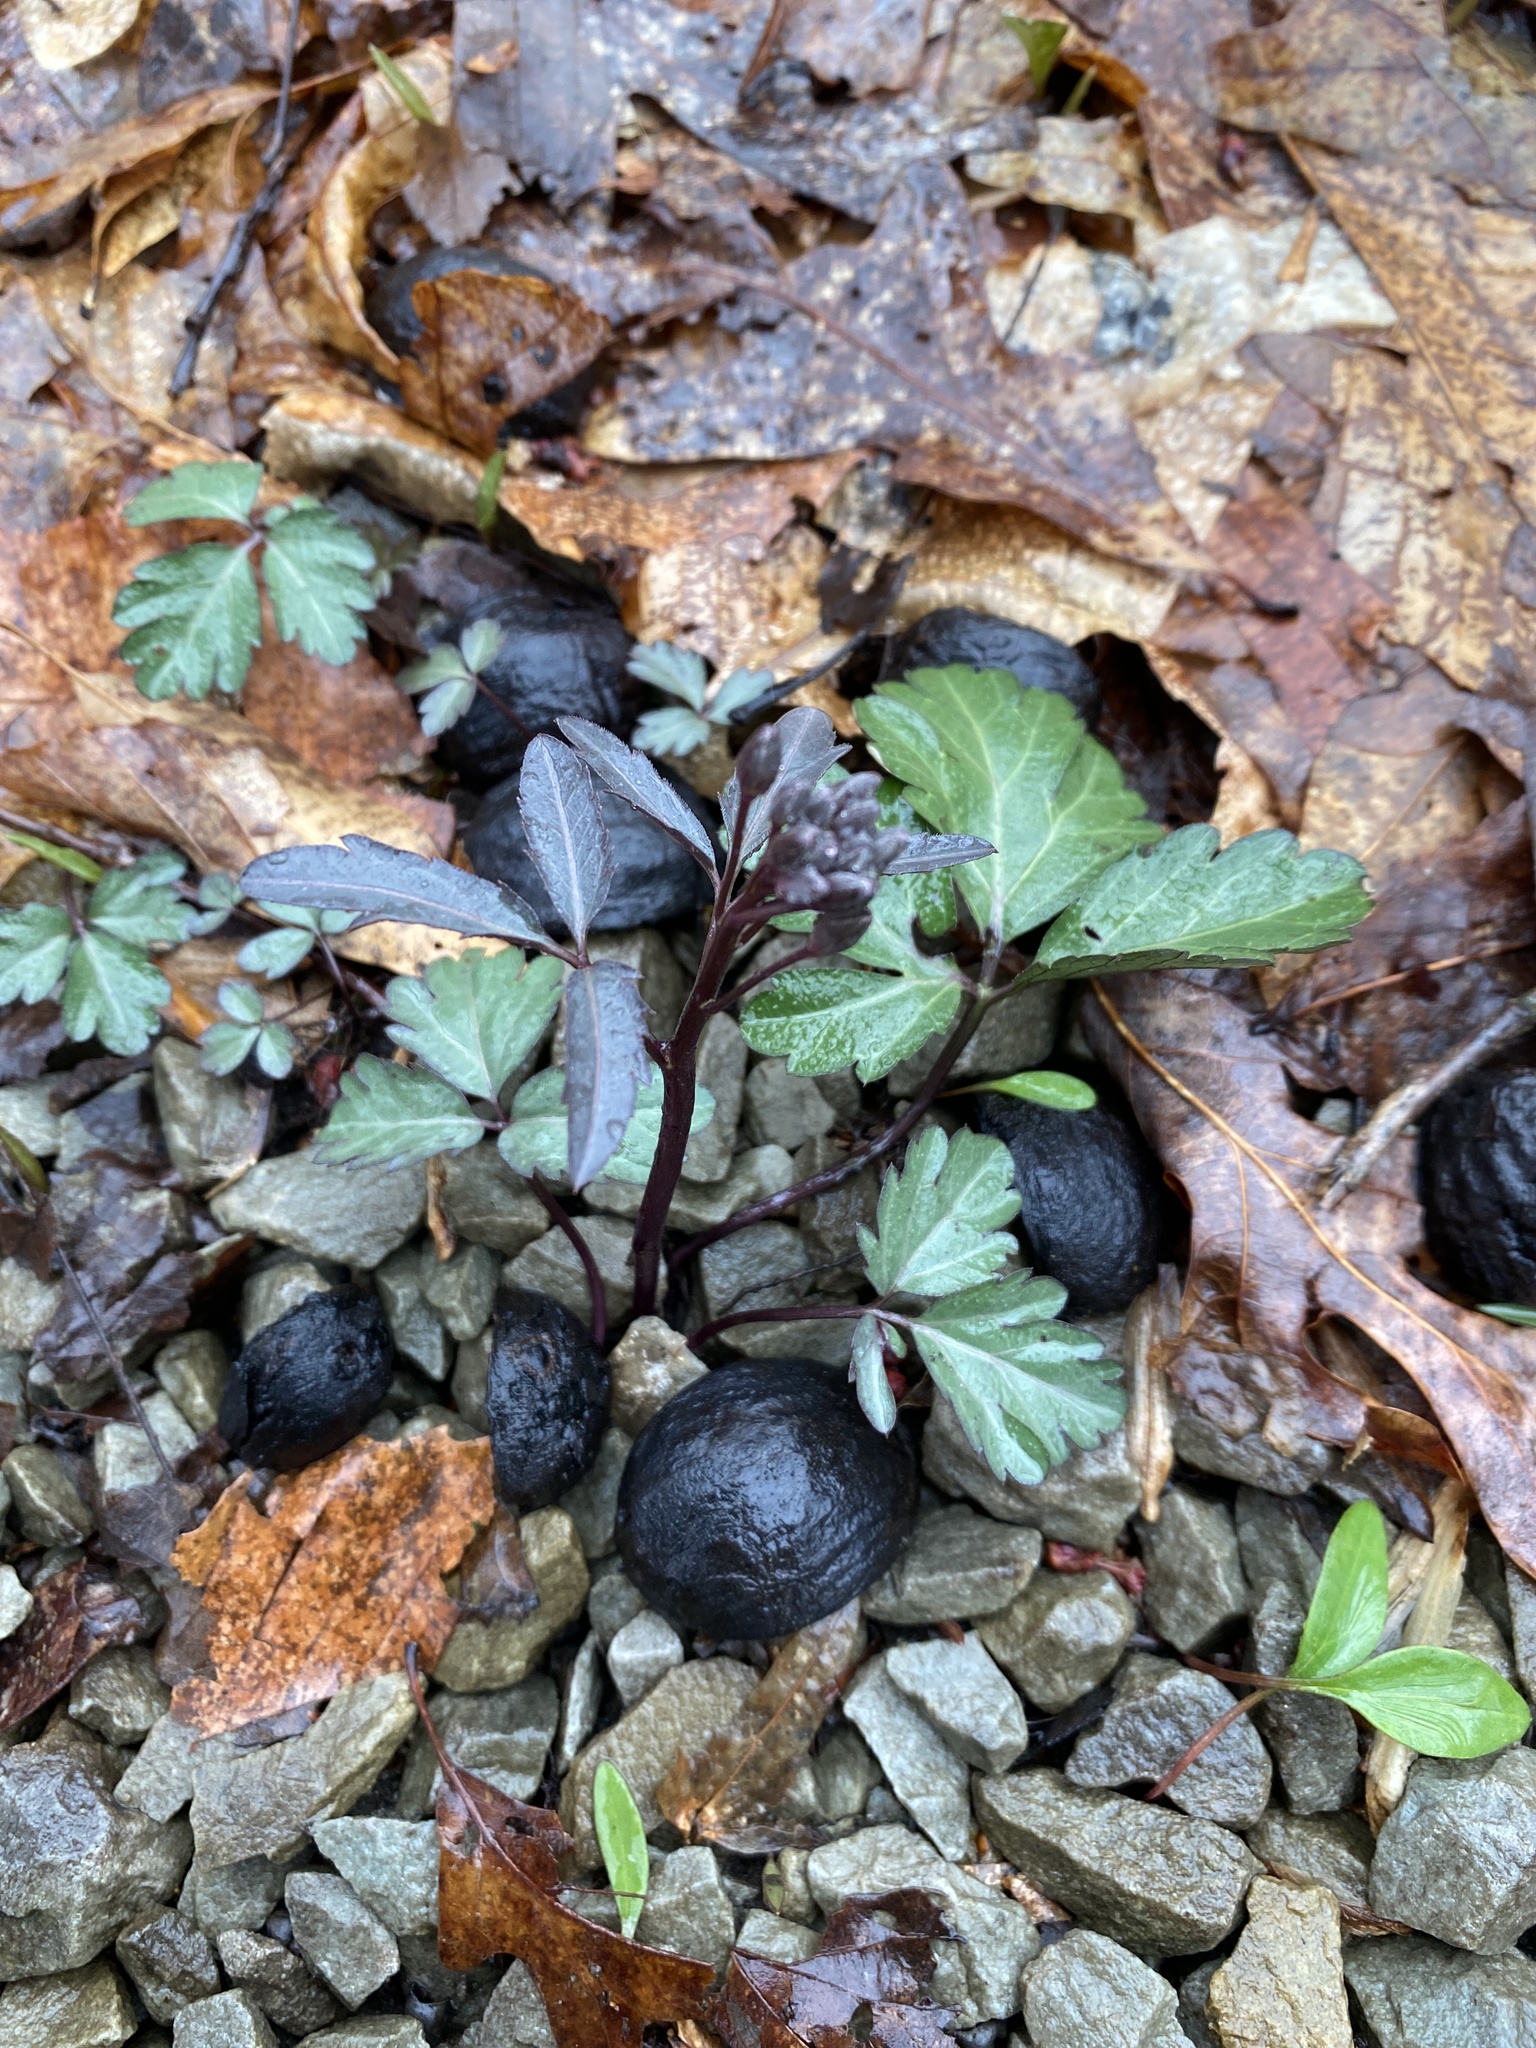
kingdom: Plantae
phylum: Tracheophyta
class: Magnoliopsida
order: Brassicales
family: Brassicaceae
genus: Cardamine
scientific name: Cardamine angustata
